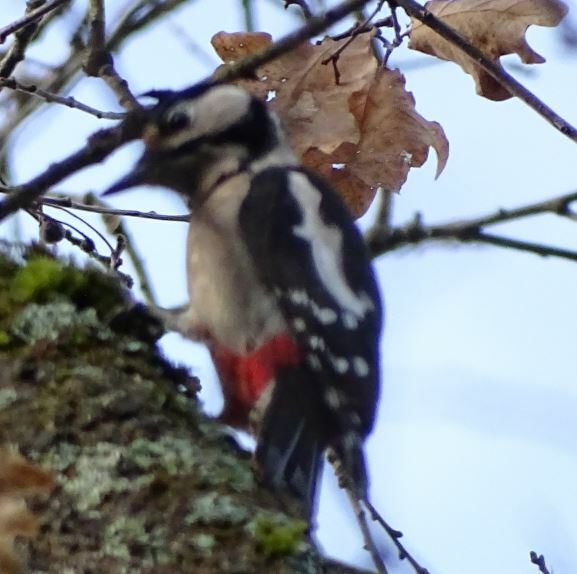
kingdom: Animalia
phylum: Chordata
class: Aves
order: Piciformes
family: Picidae
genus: Dendrocopos
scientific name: Dendrocopos major
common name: Great spotted woodpecker
